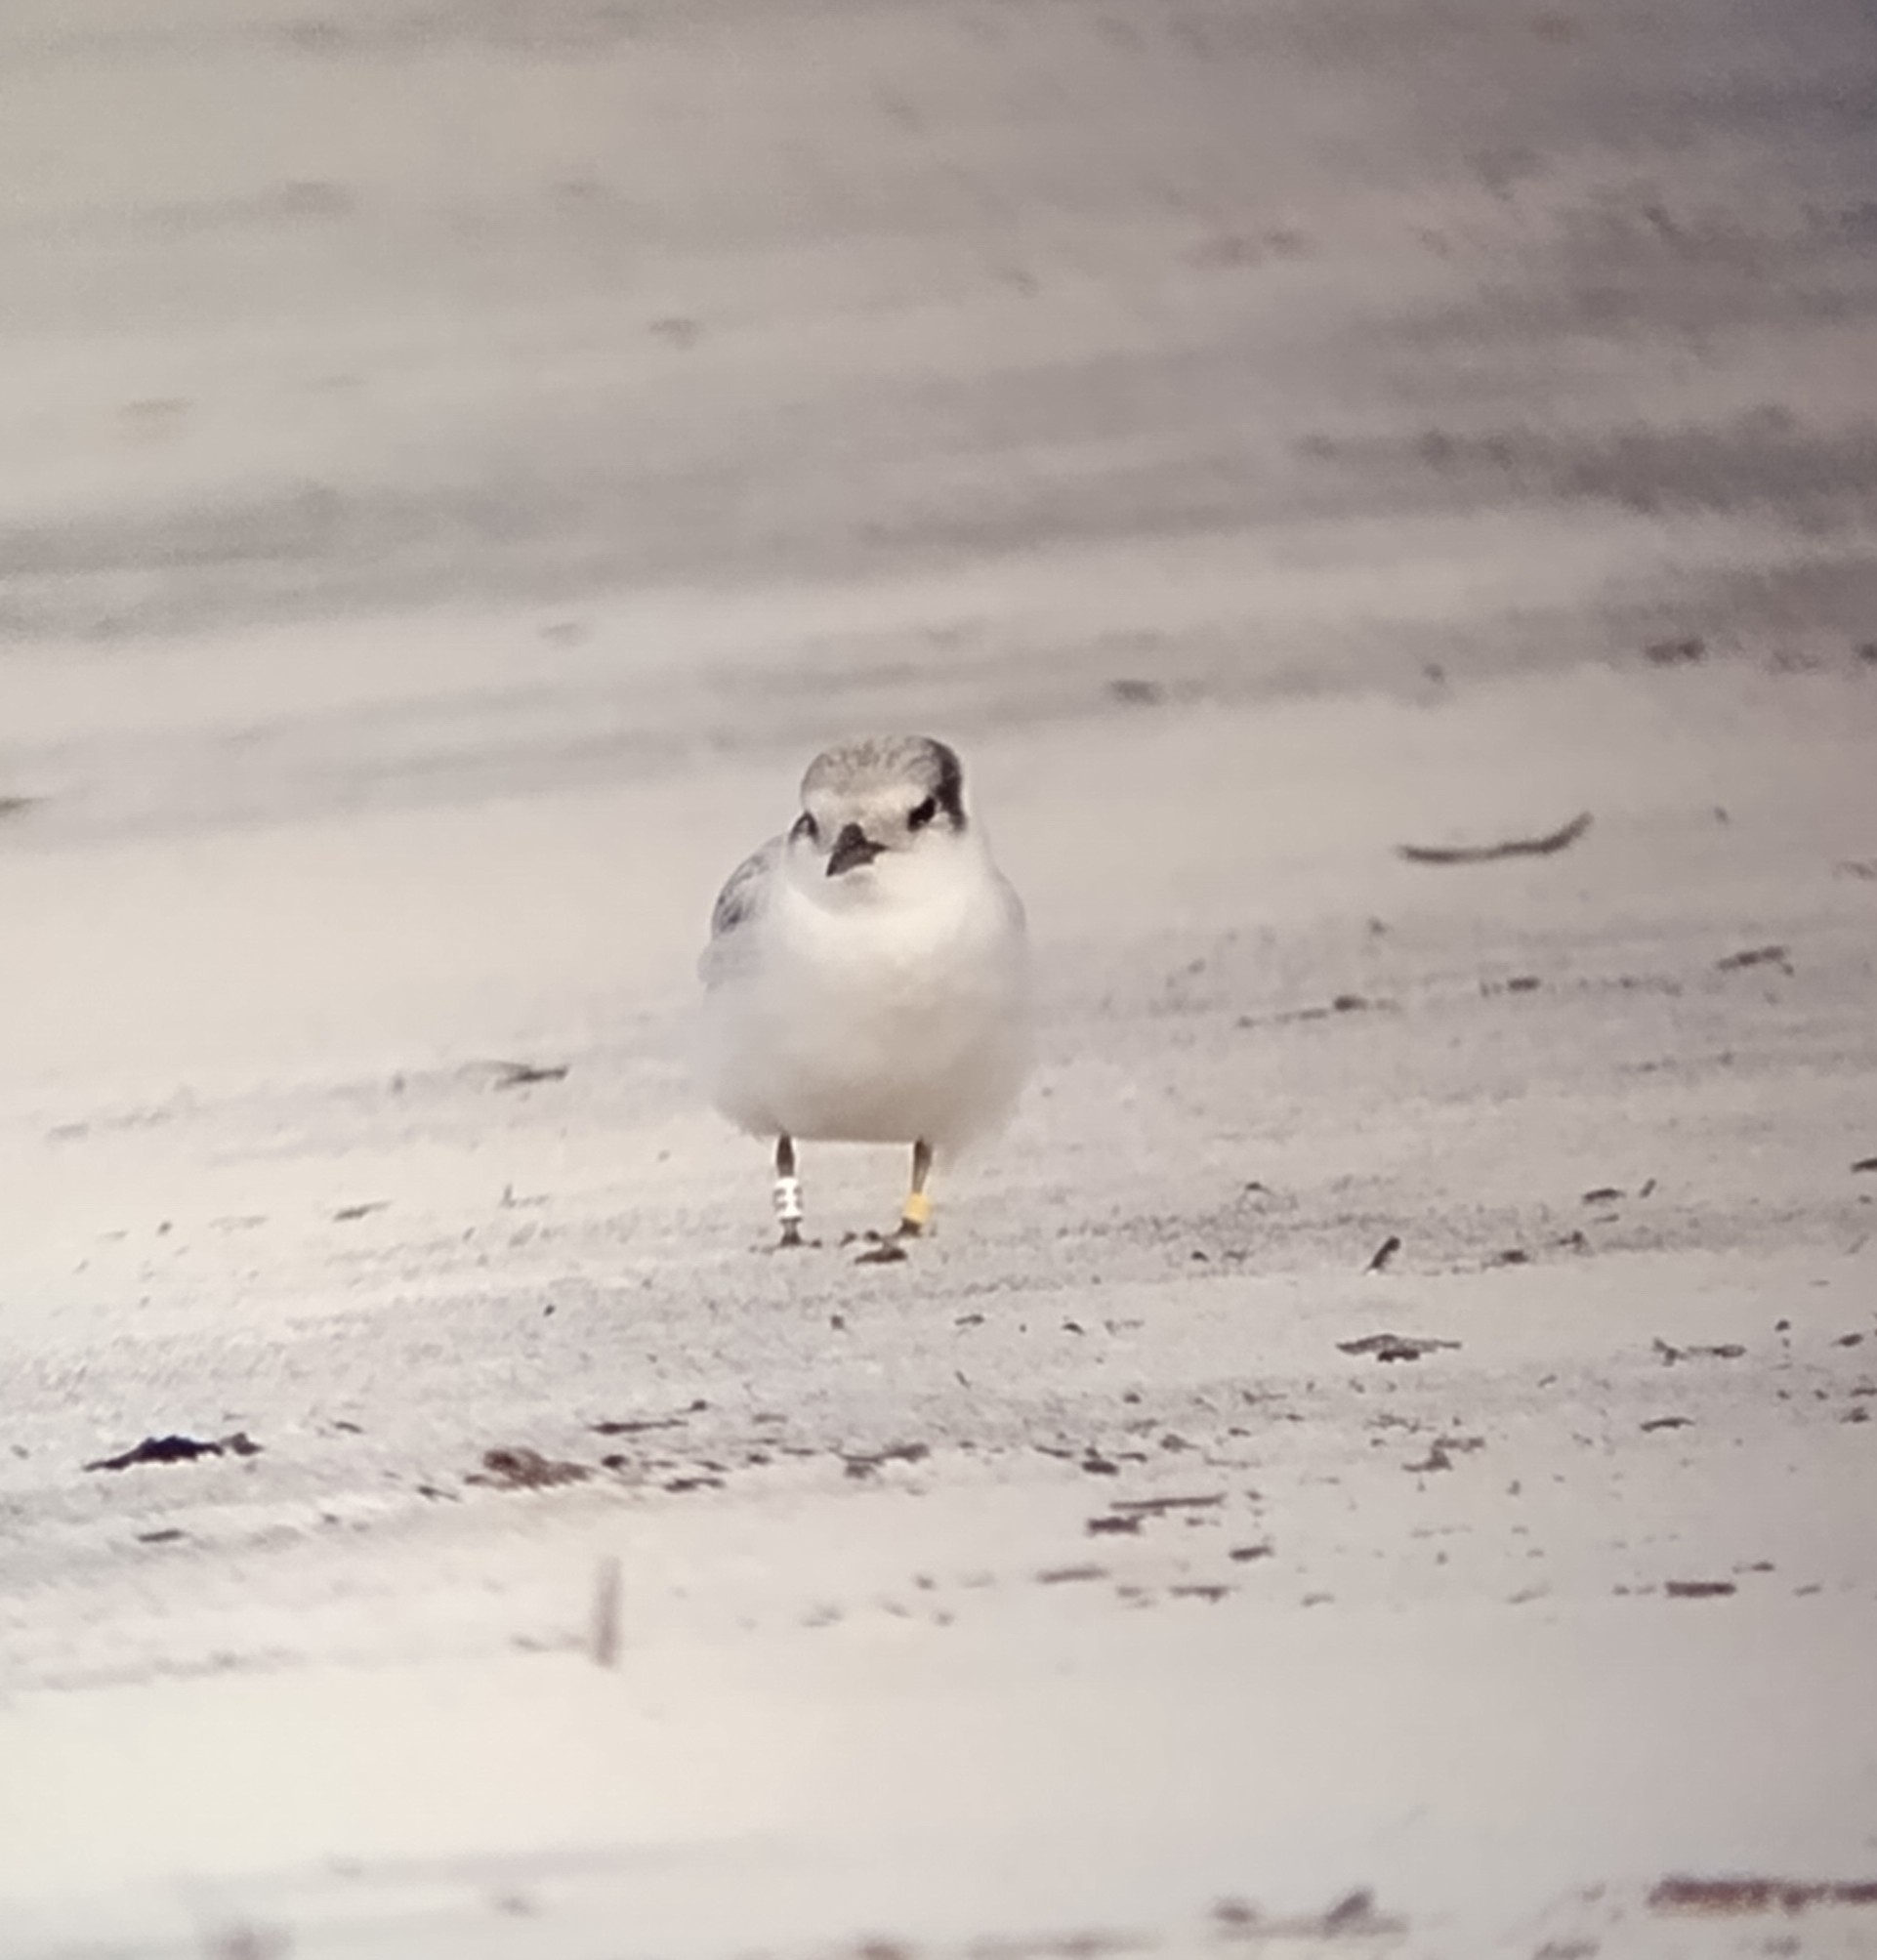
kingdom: Animalia
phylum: Chordata
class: Aves
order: Charadriiformes
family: Laridae
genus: Sternula
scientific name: Sternula antillarum
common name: Least tern
